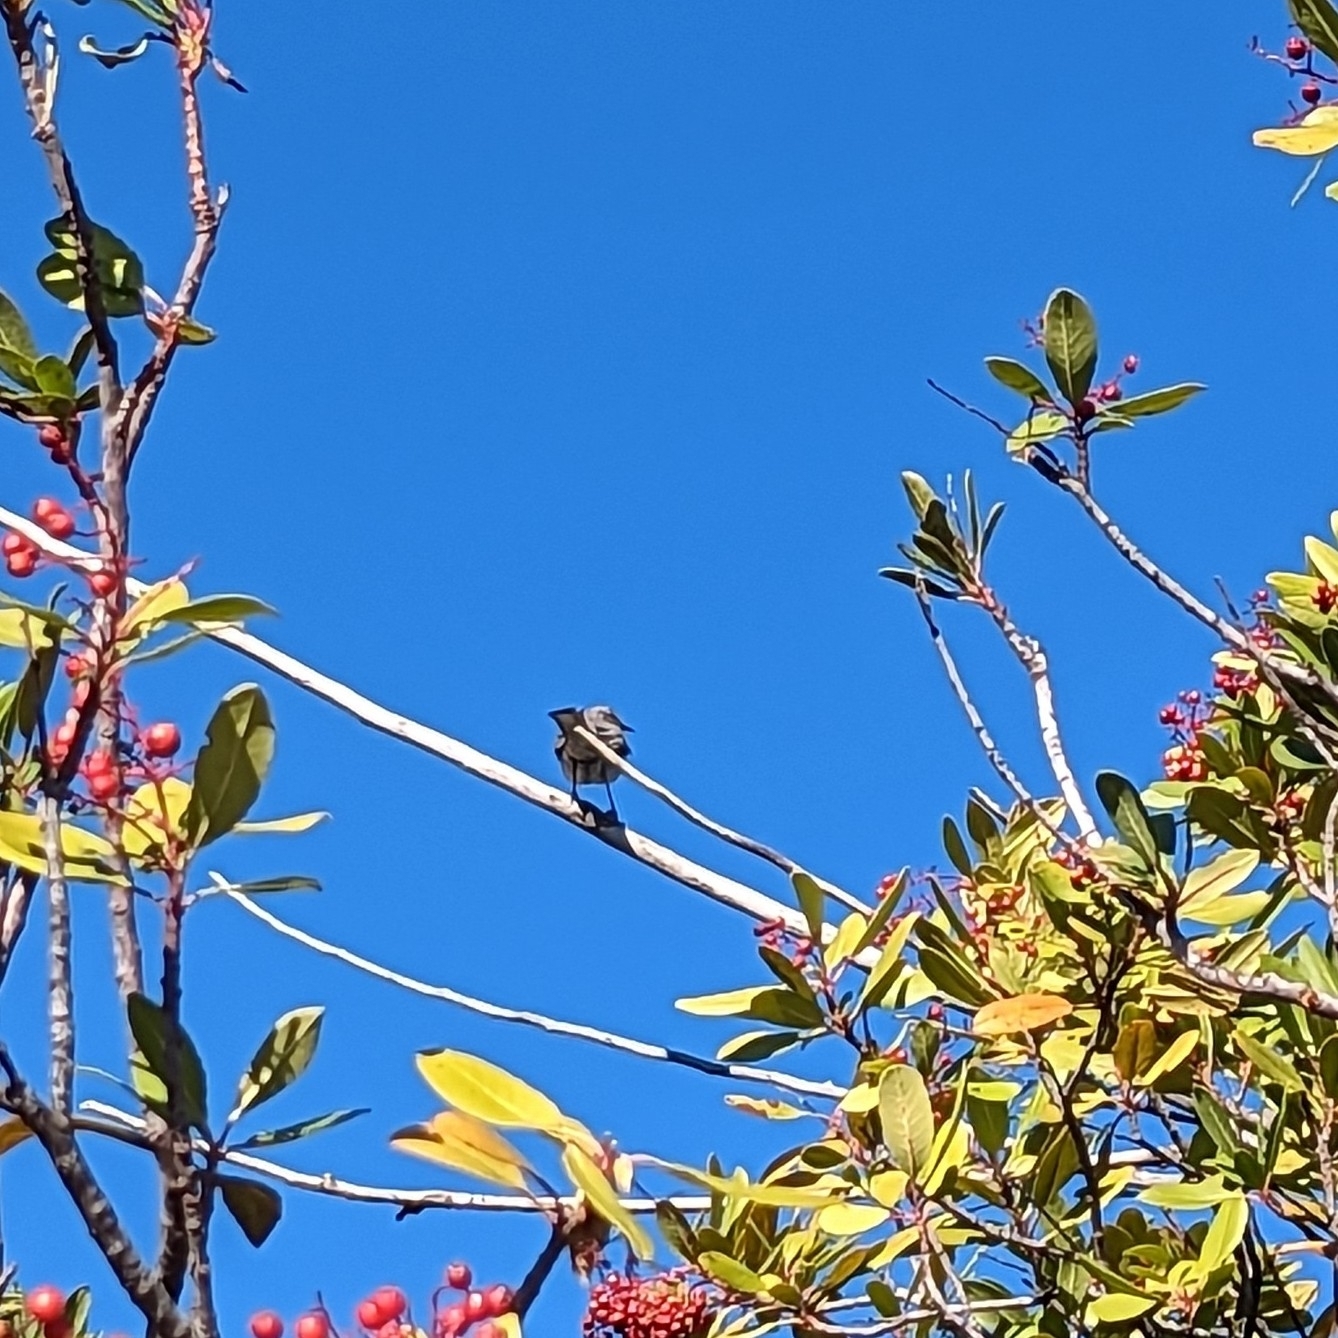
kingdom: Animalia
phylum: Chordata
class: Aves
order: Passeriformes
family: Mimidae
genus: Mimus
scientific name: Mimus polyglottos
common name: Northern mockingbird
